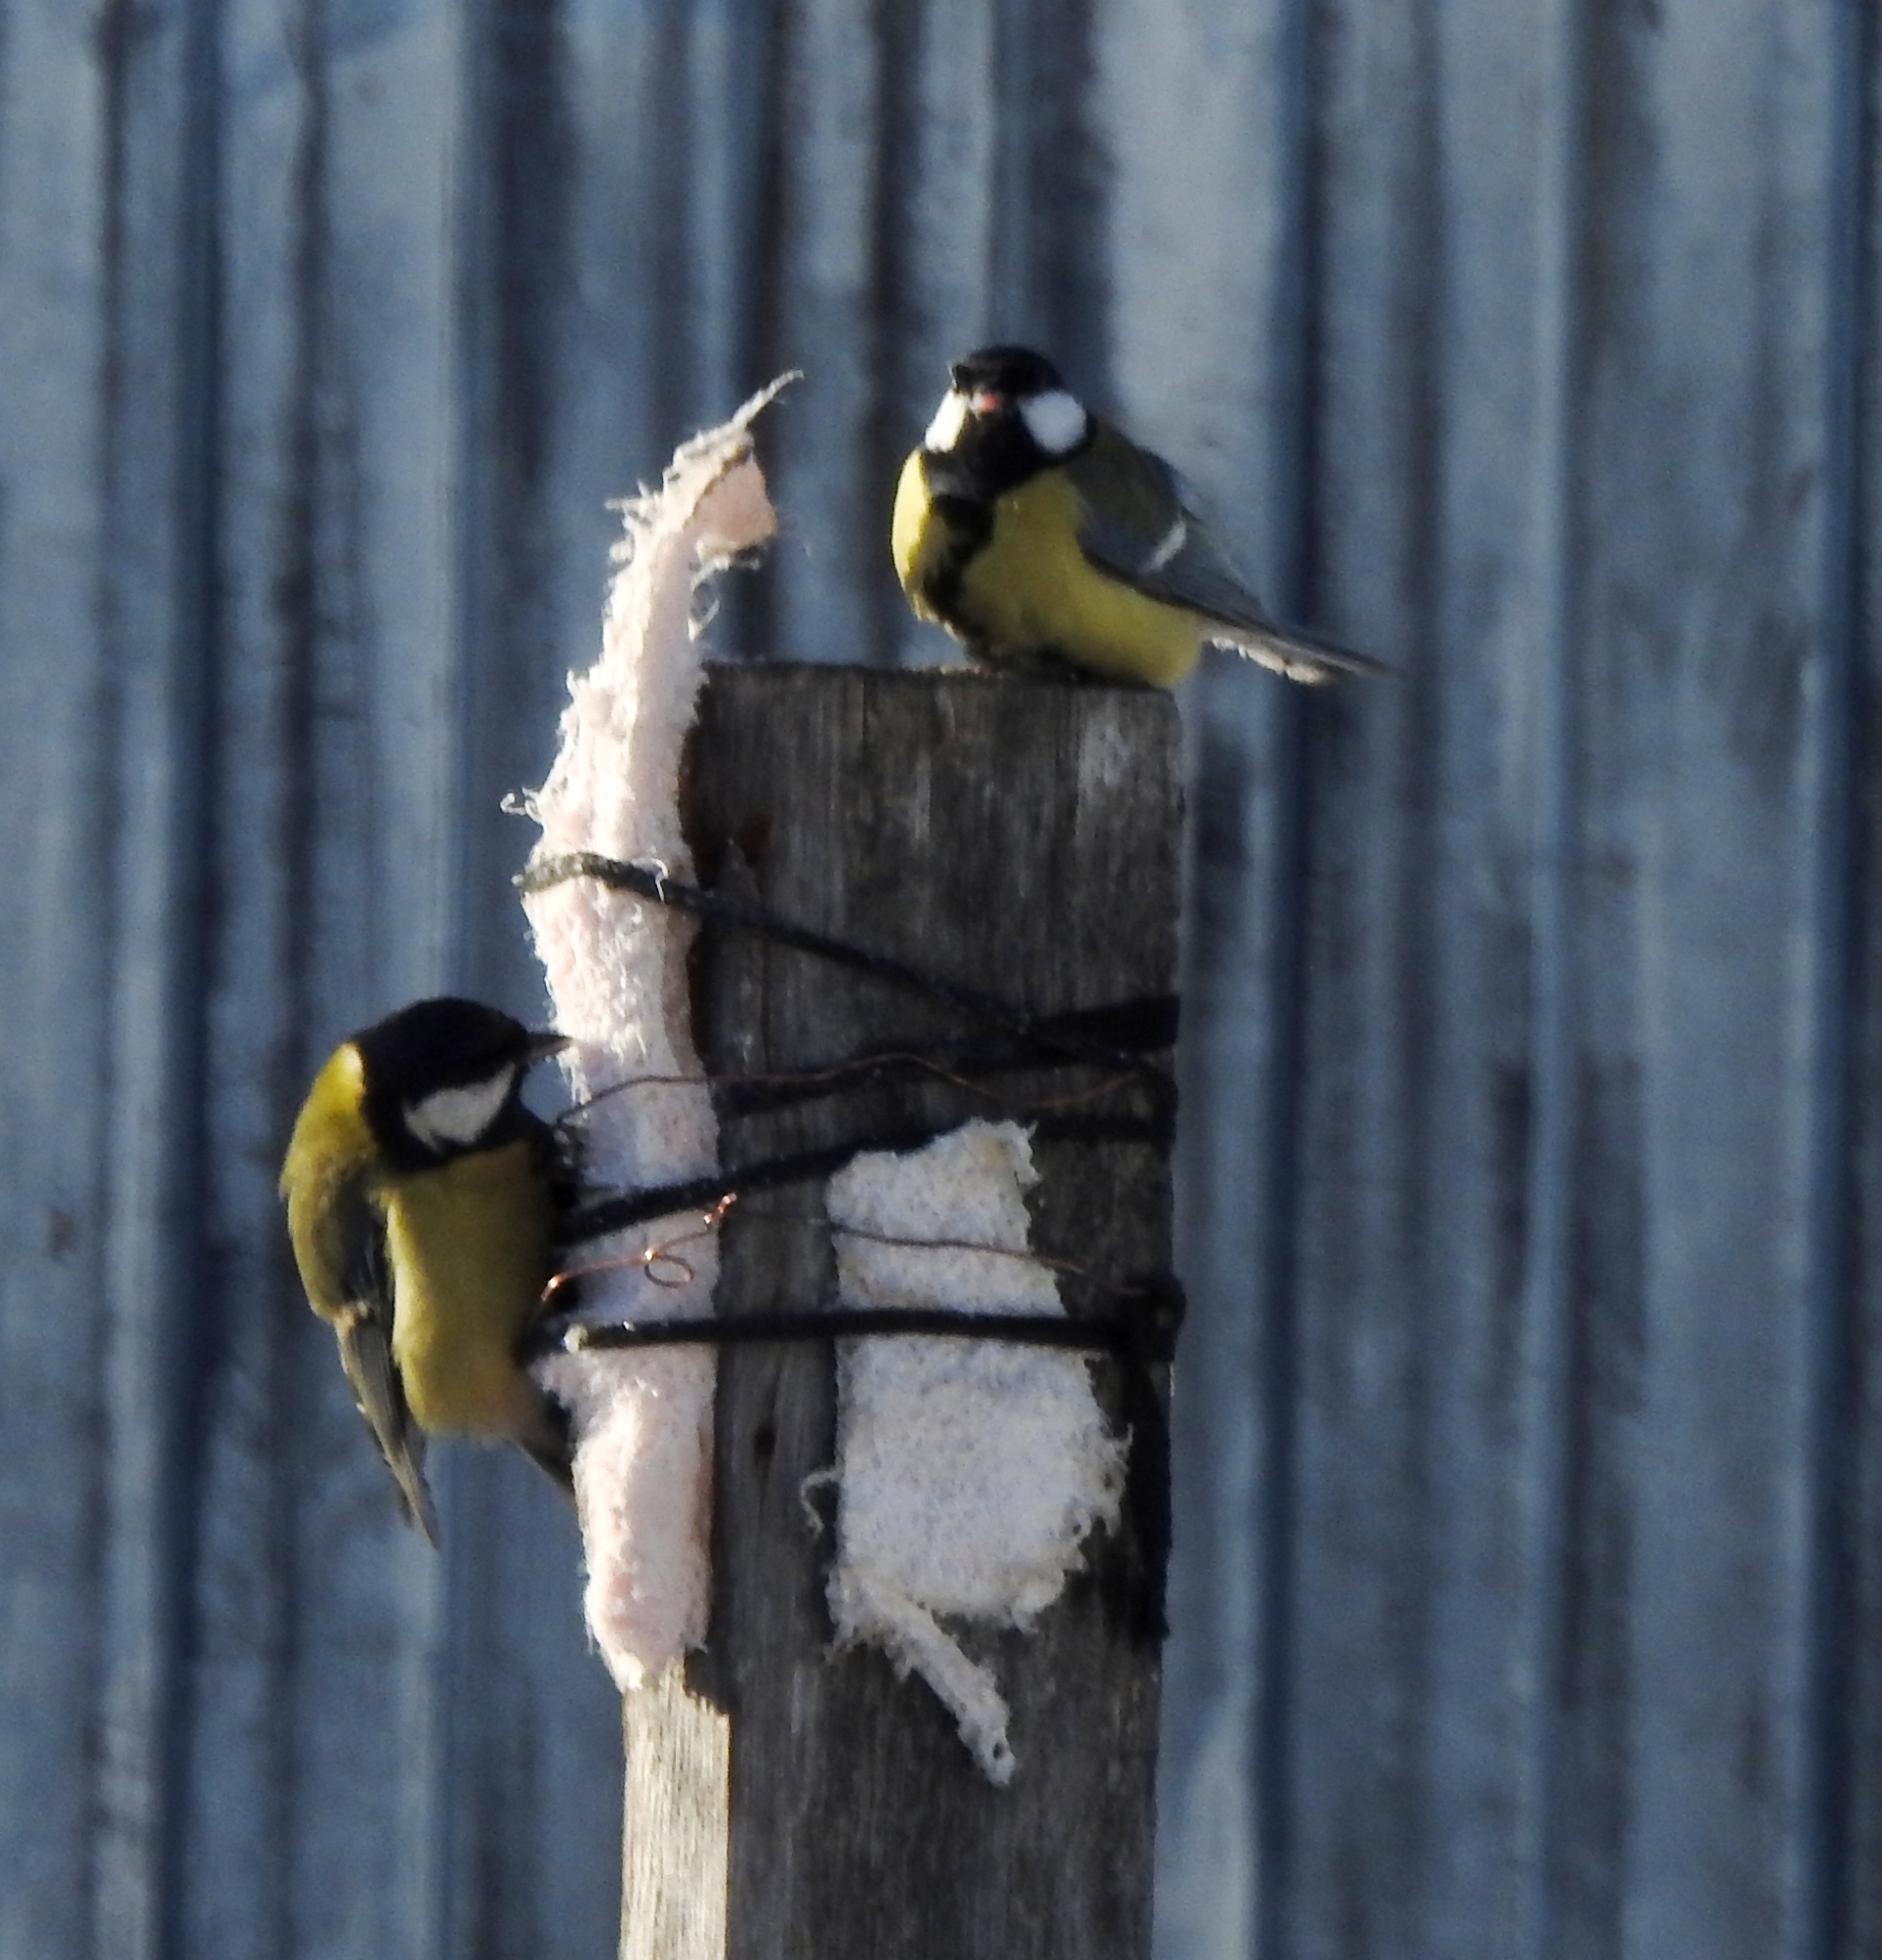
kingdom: Animalia
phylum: Chordata
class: Aves
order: Passeriformes
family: Paridae
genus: Parus
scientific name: Parus major
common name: Great tit
